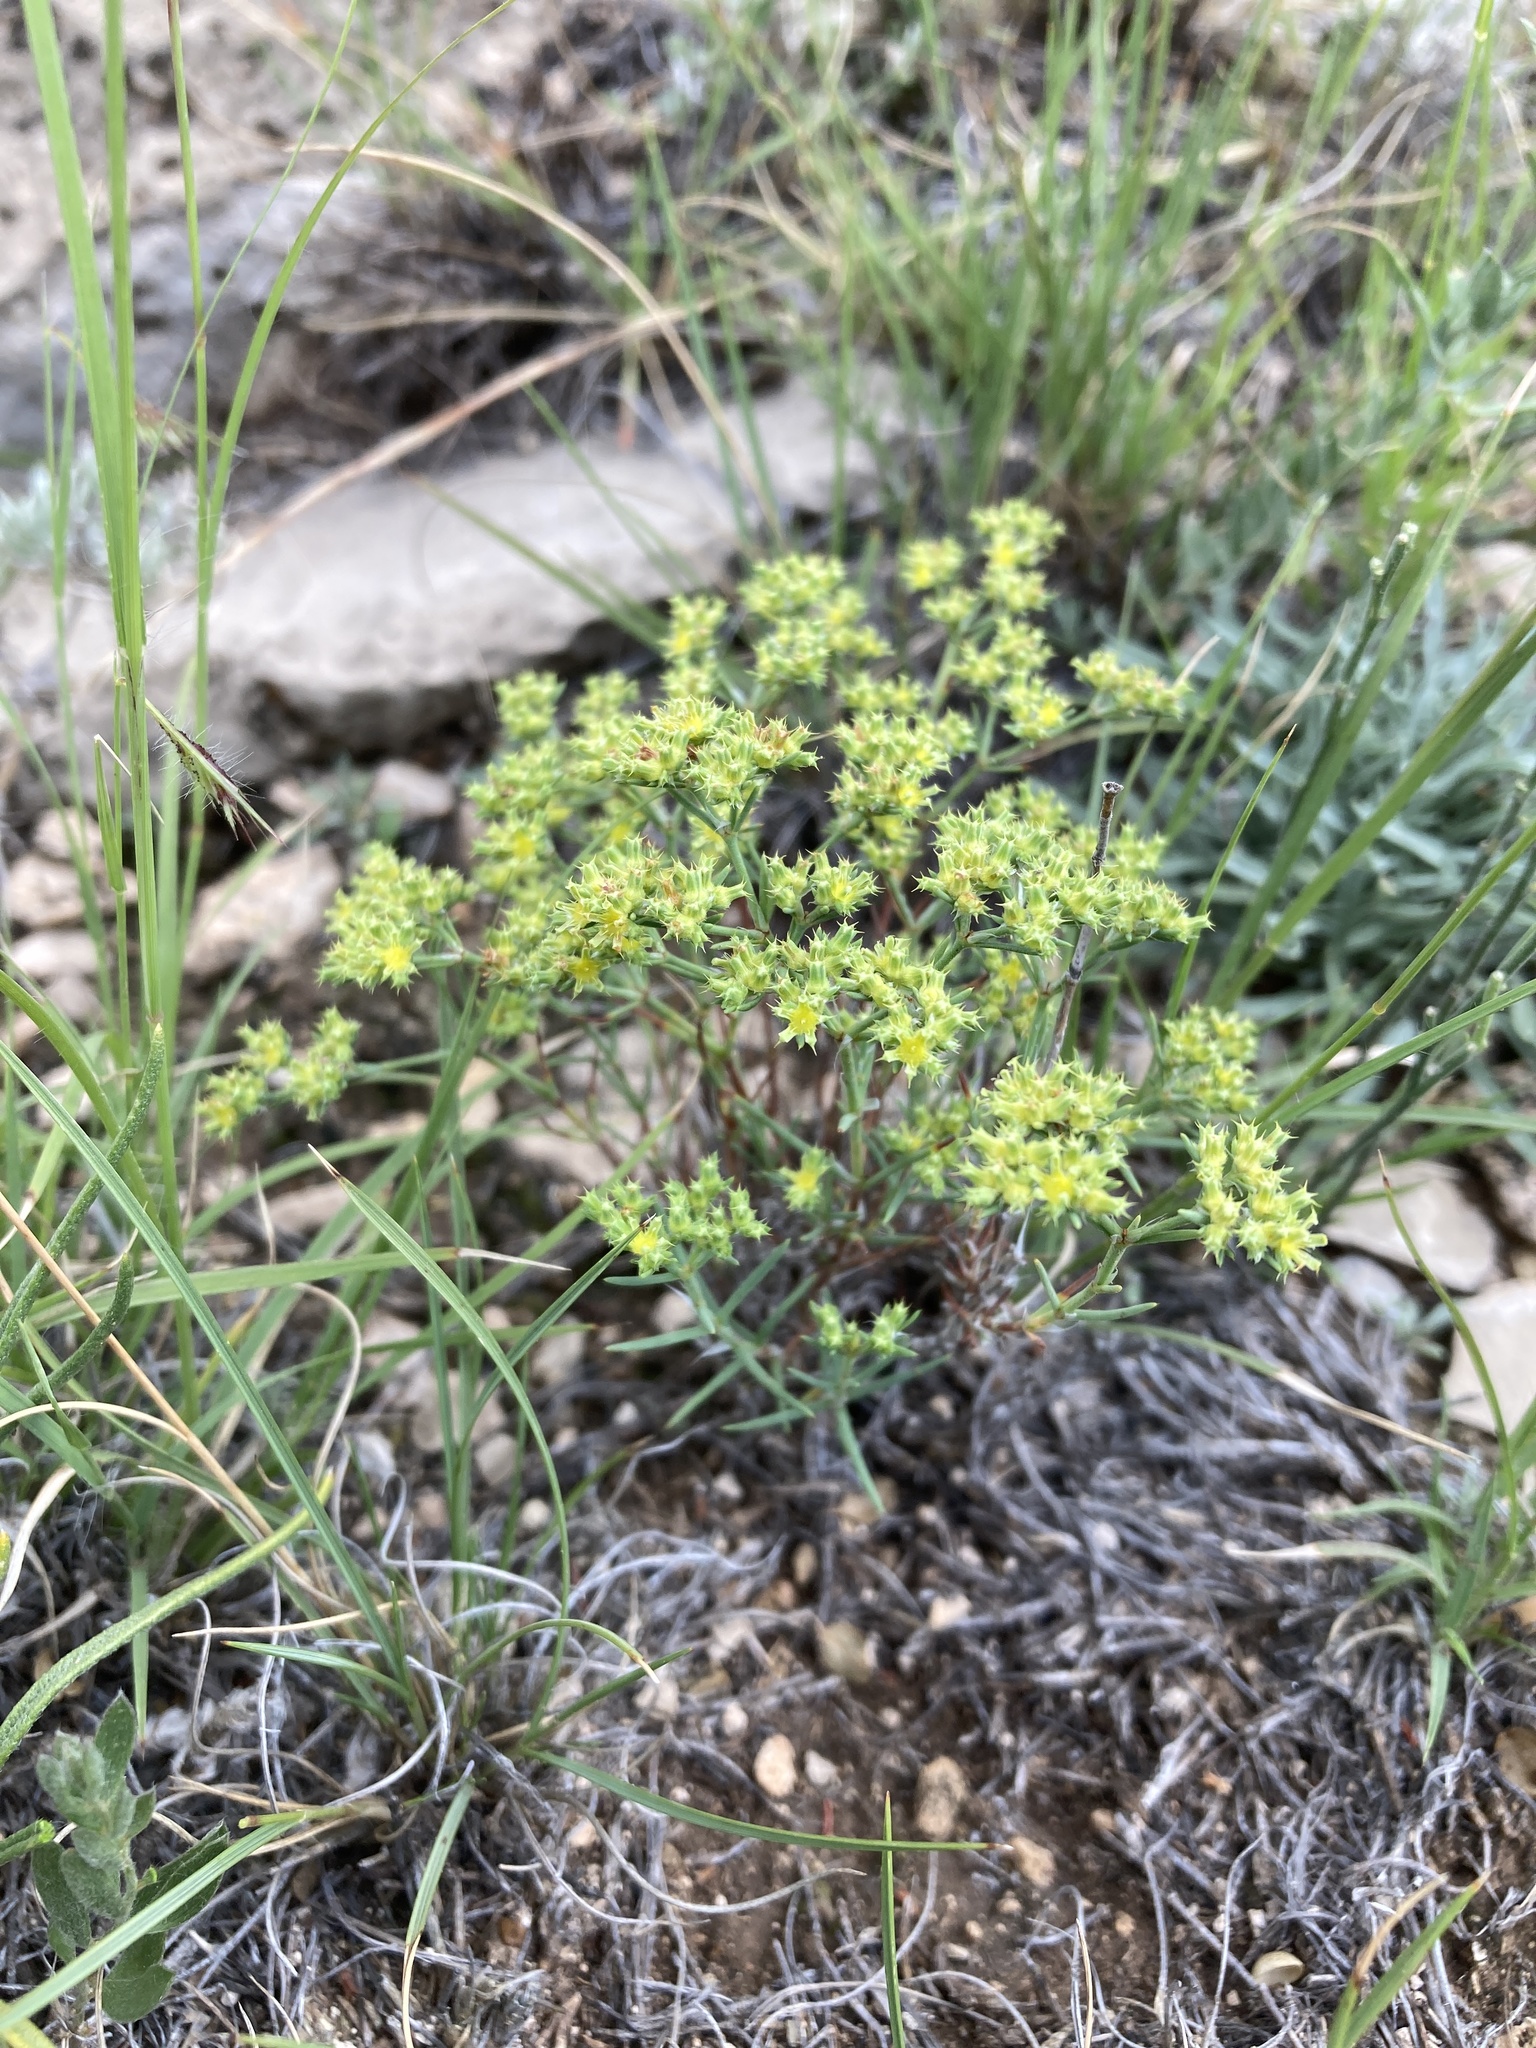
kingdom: Plantae
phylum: Tracheophyta
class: Magnoliopsida
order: Caryophyllales
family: Caryophyllaceae
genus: Paronychia
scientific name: Paronychia jamesii
